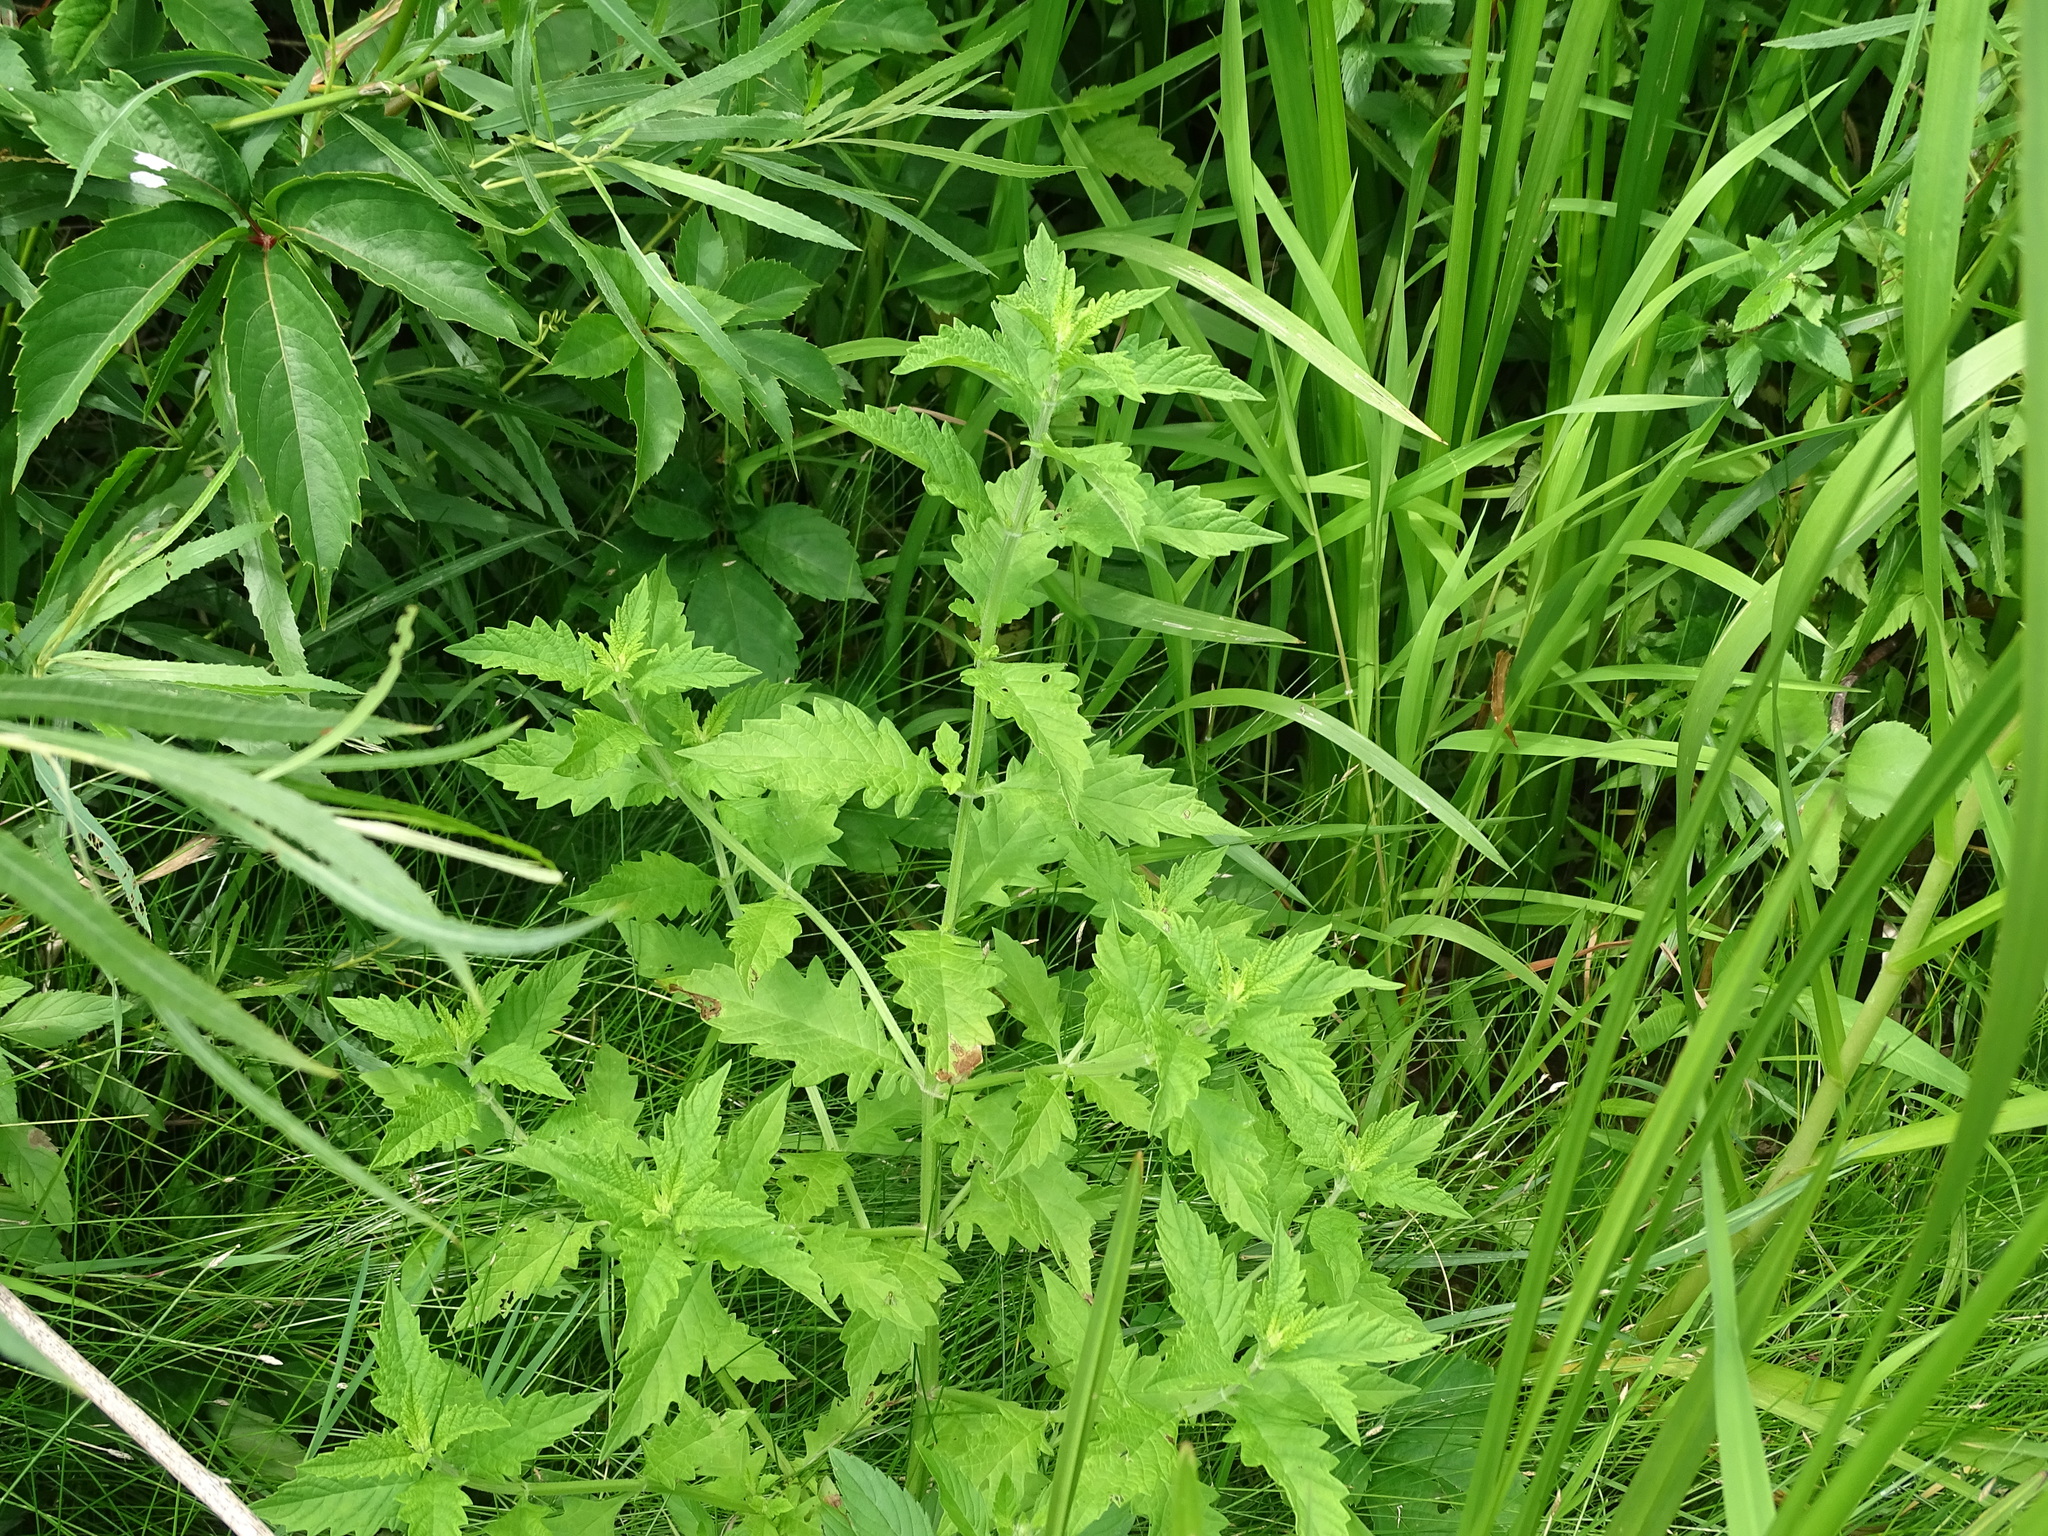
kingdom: Plantae
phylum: Tracheophyta
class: Magnoliopsida
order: Lamiales
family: Lamiaceae
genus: Lycopus
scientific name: Lycopus europaeus
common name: European bugleweed
